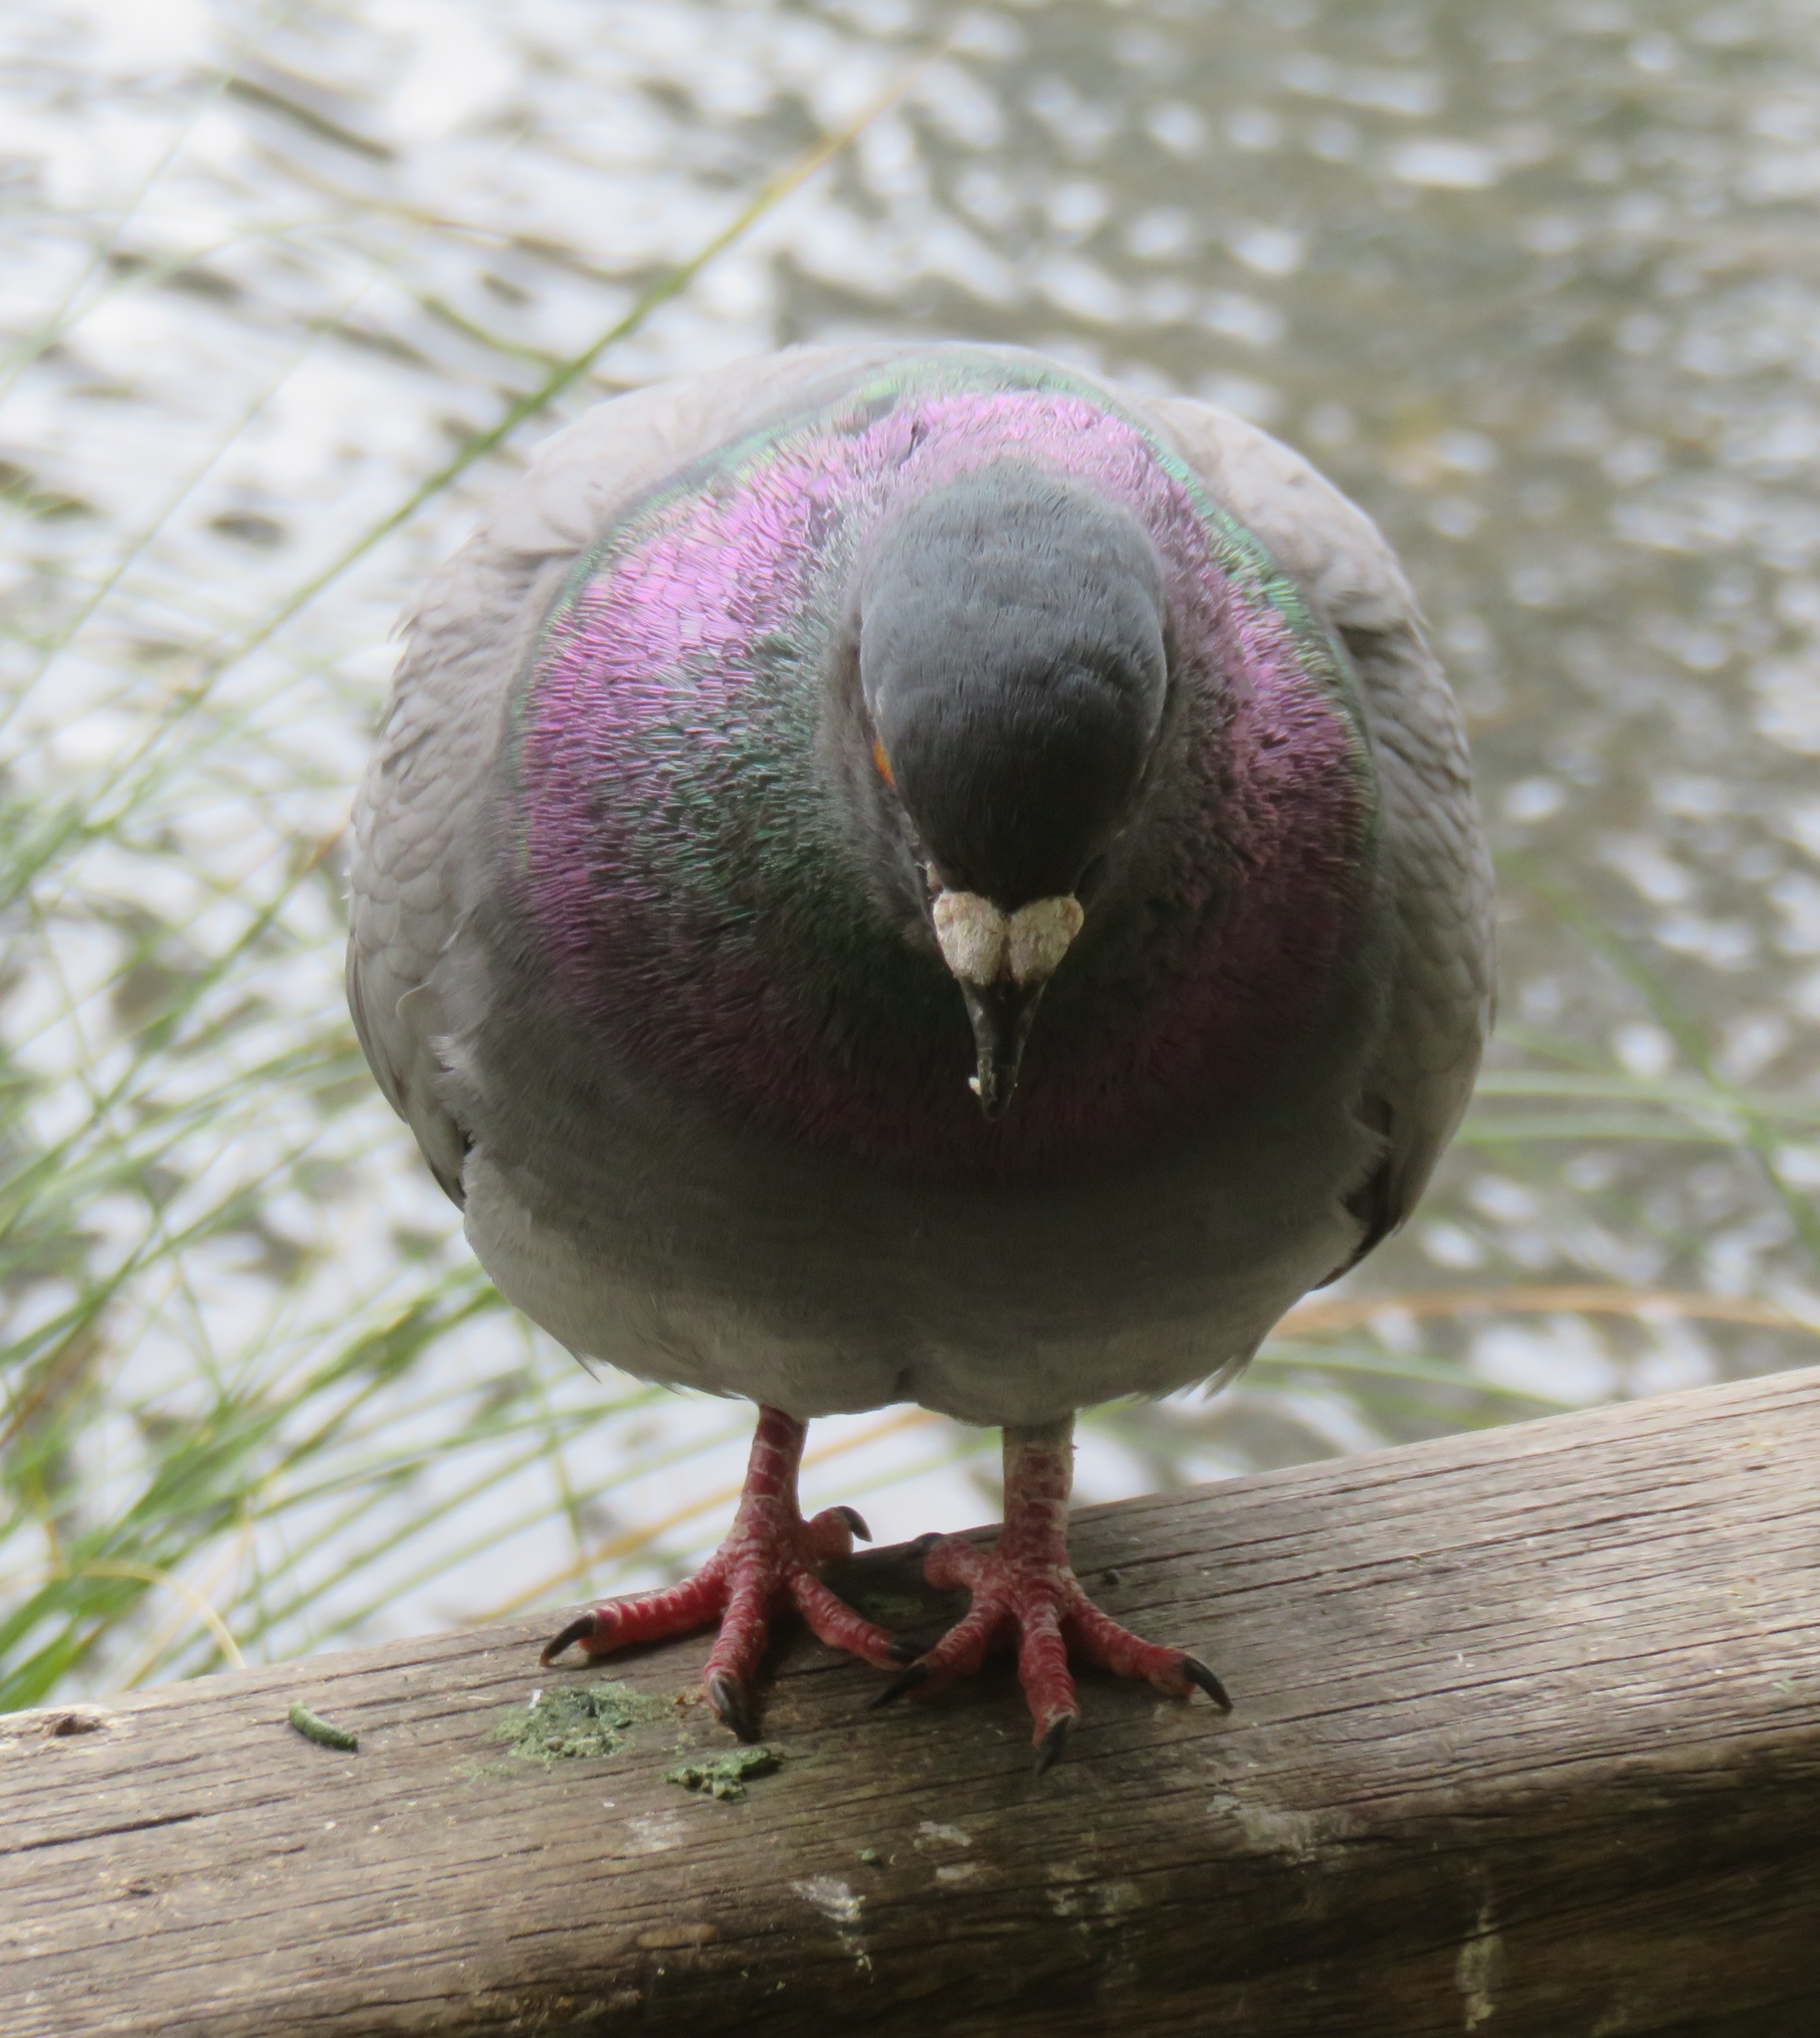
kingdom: Animalia
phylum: Chordata
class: Aves
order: Columbiformes
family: Columbidae
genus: Columba
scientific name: Columba livia
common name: Rock pigeon
